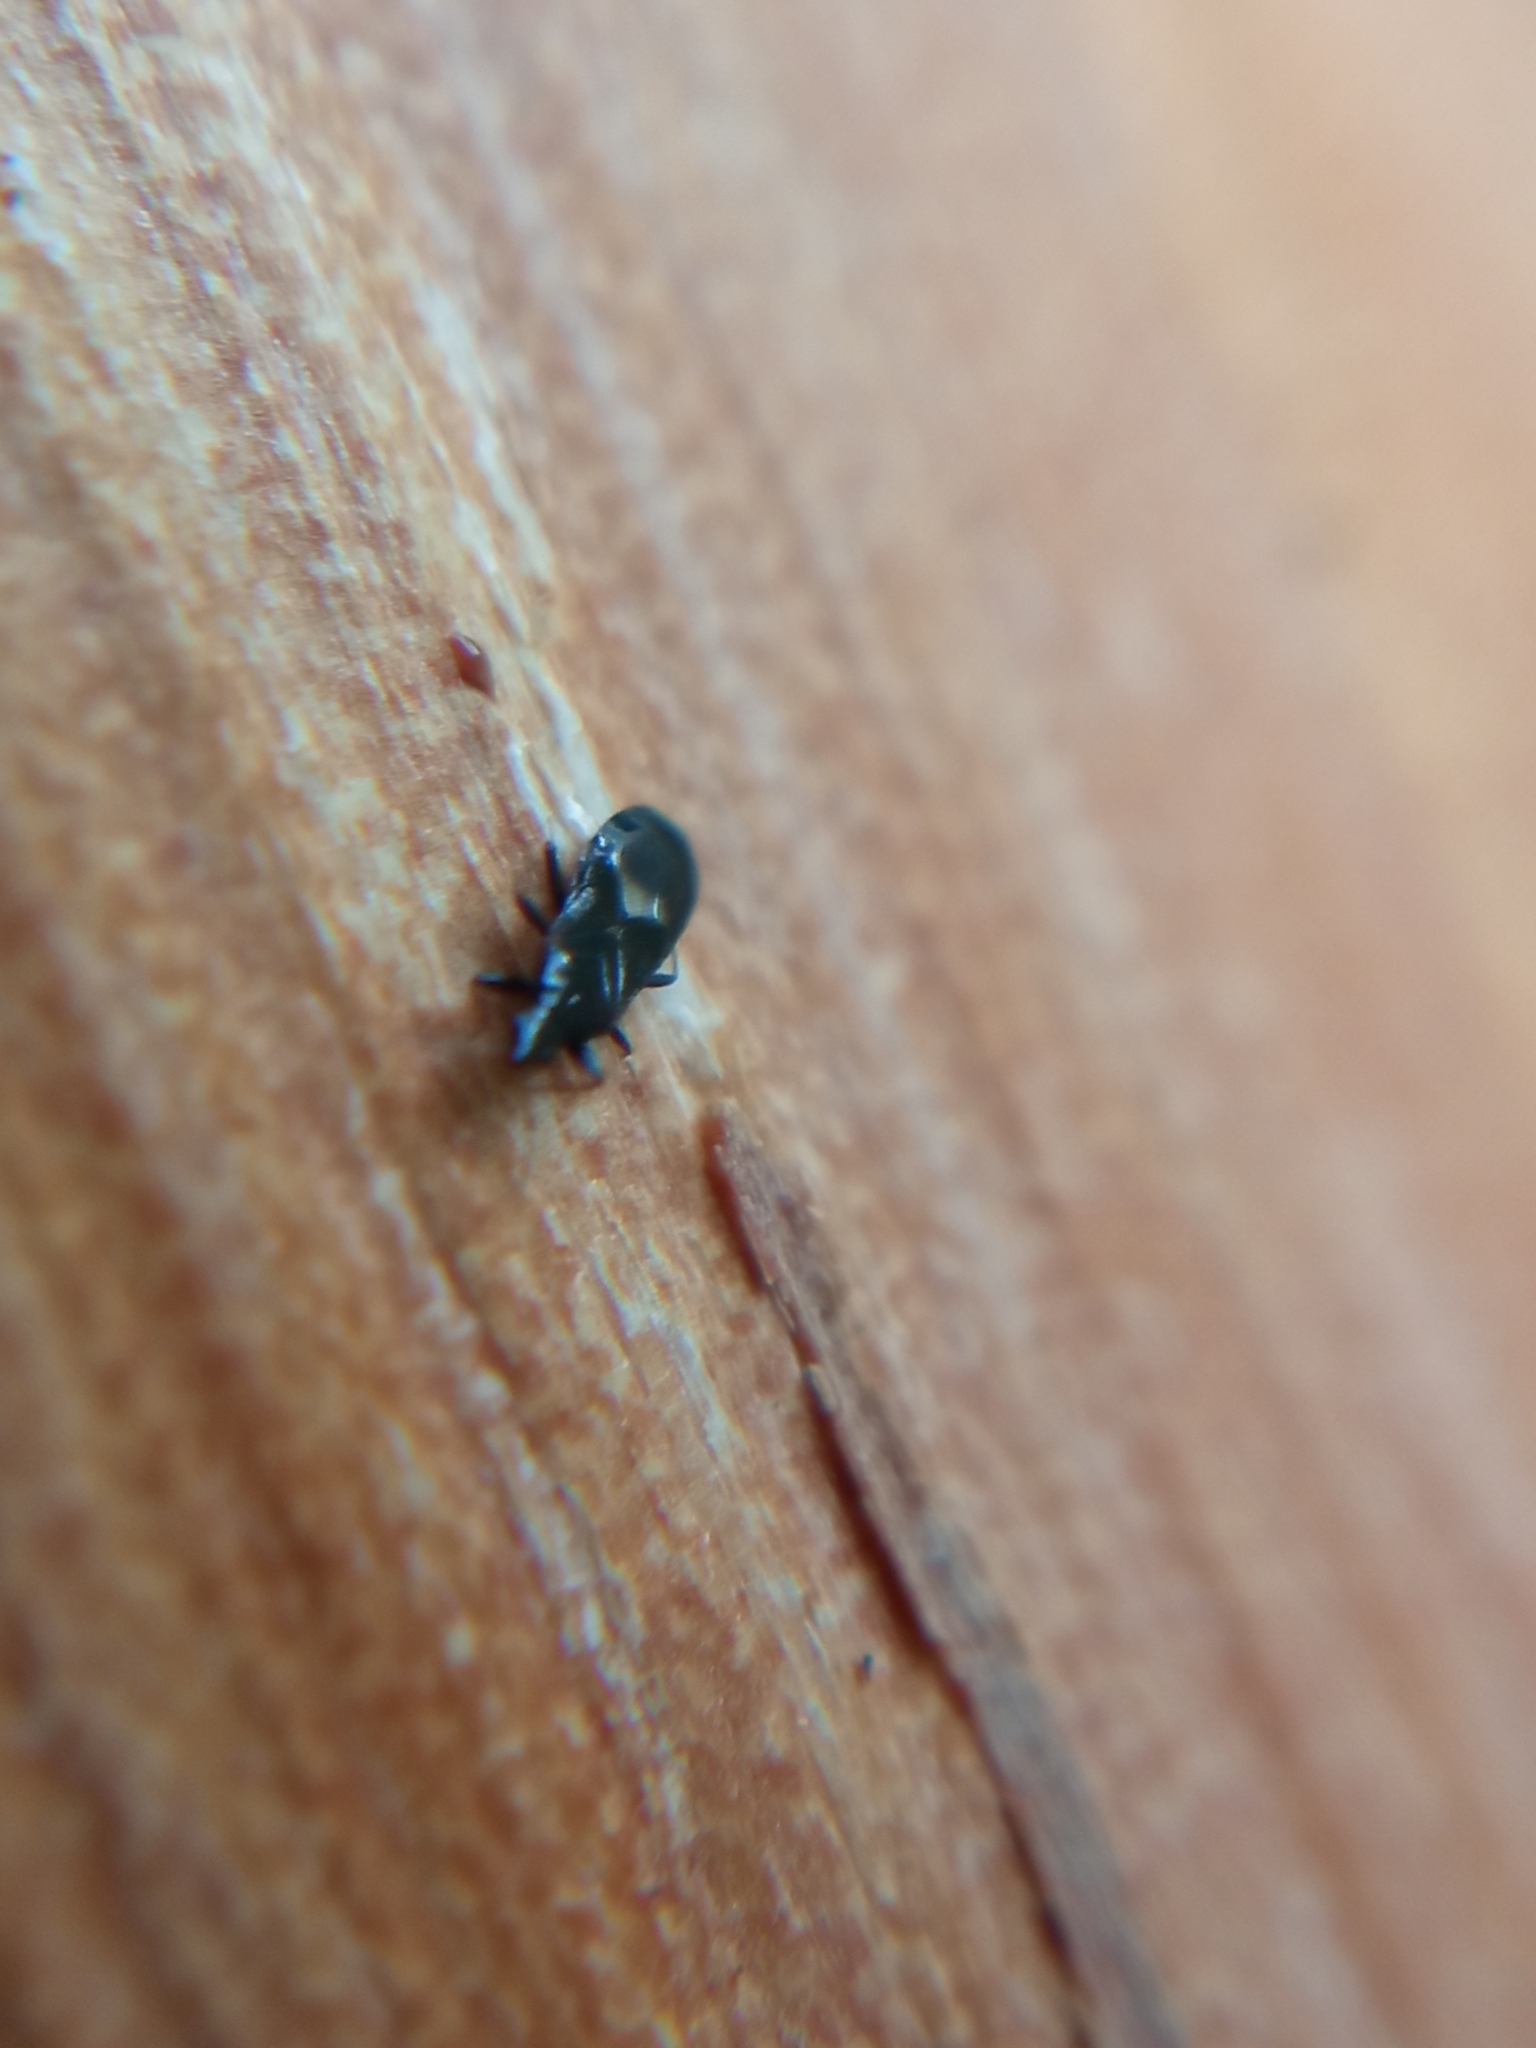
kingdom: Animalia
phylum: Arthropoda
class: Insecta
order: Hemiptera
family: Anthocoridae
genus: Dufouriellus
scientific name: Dufouriellus ater
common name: Minute pirate bug
